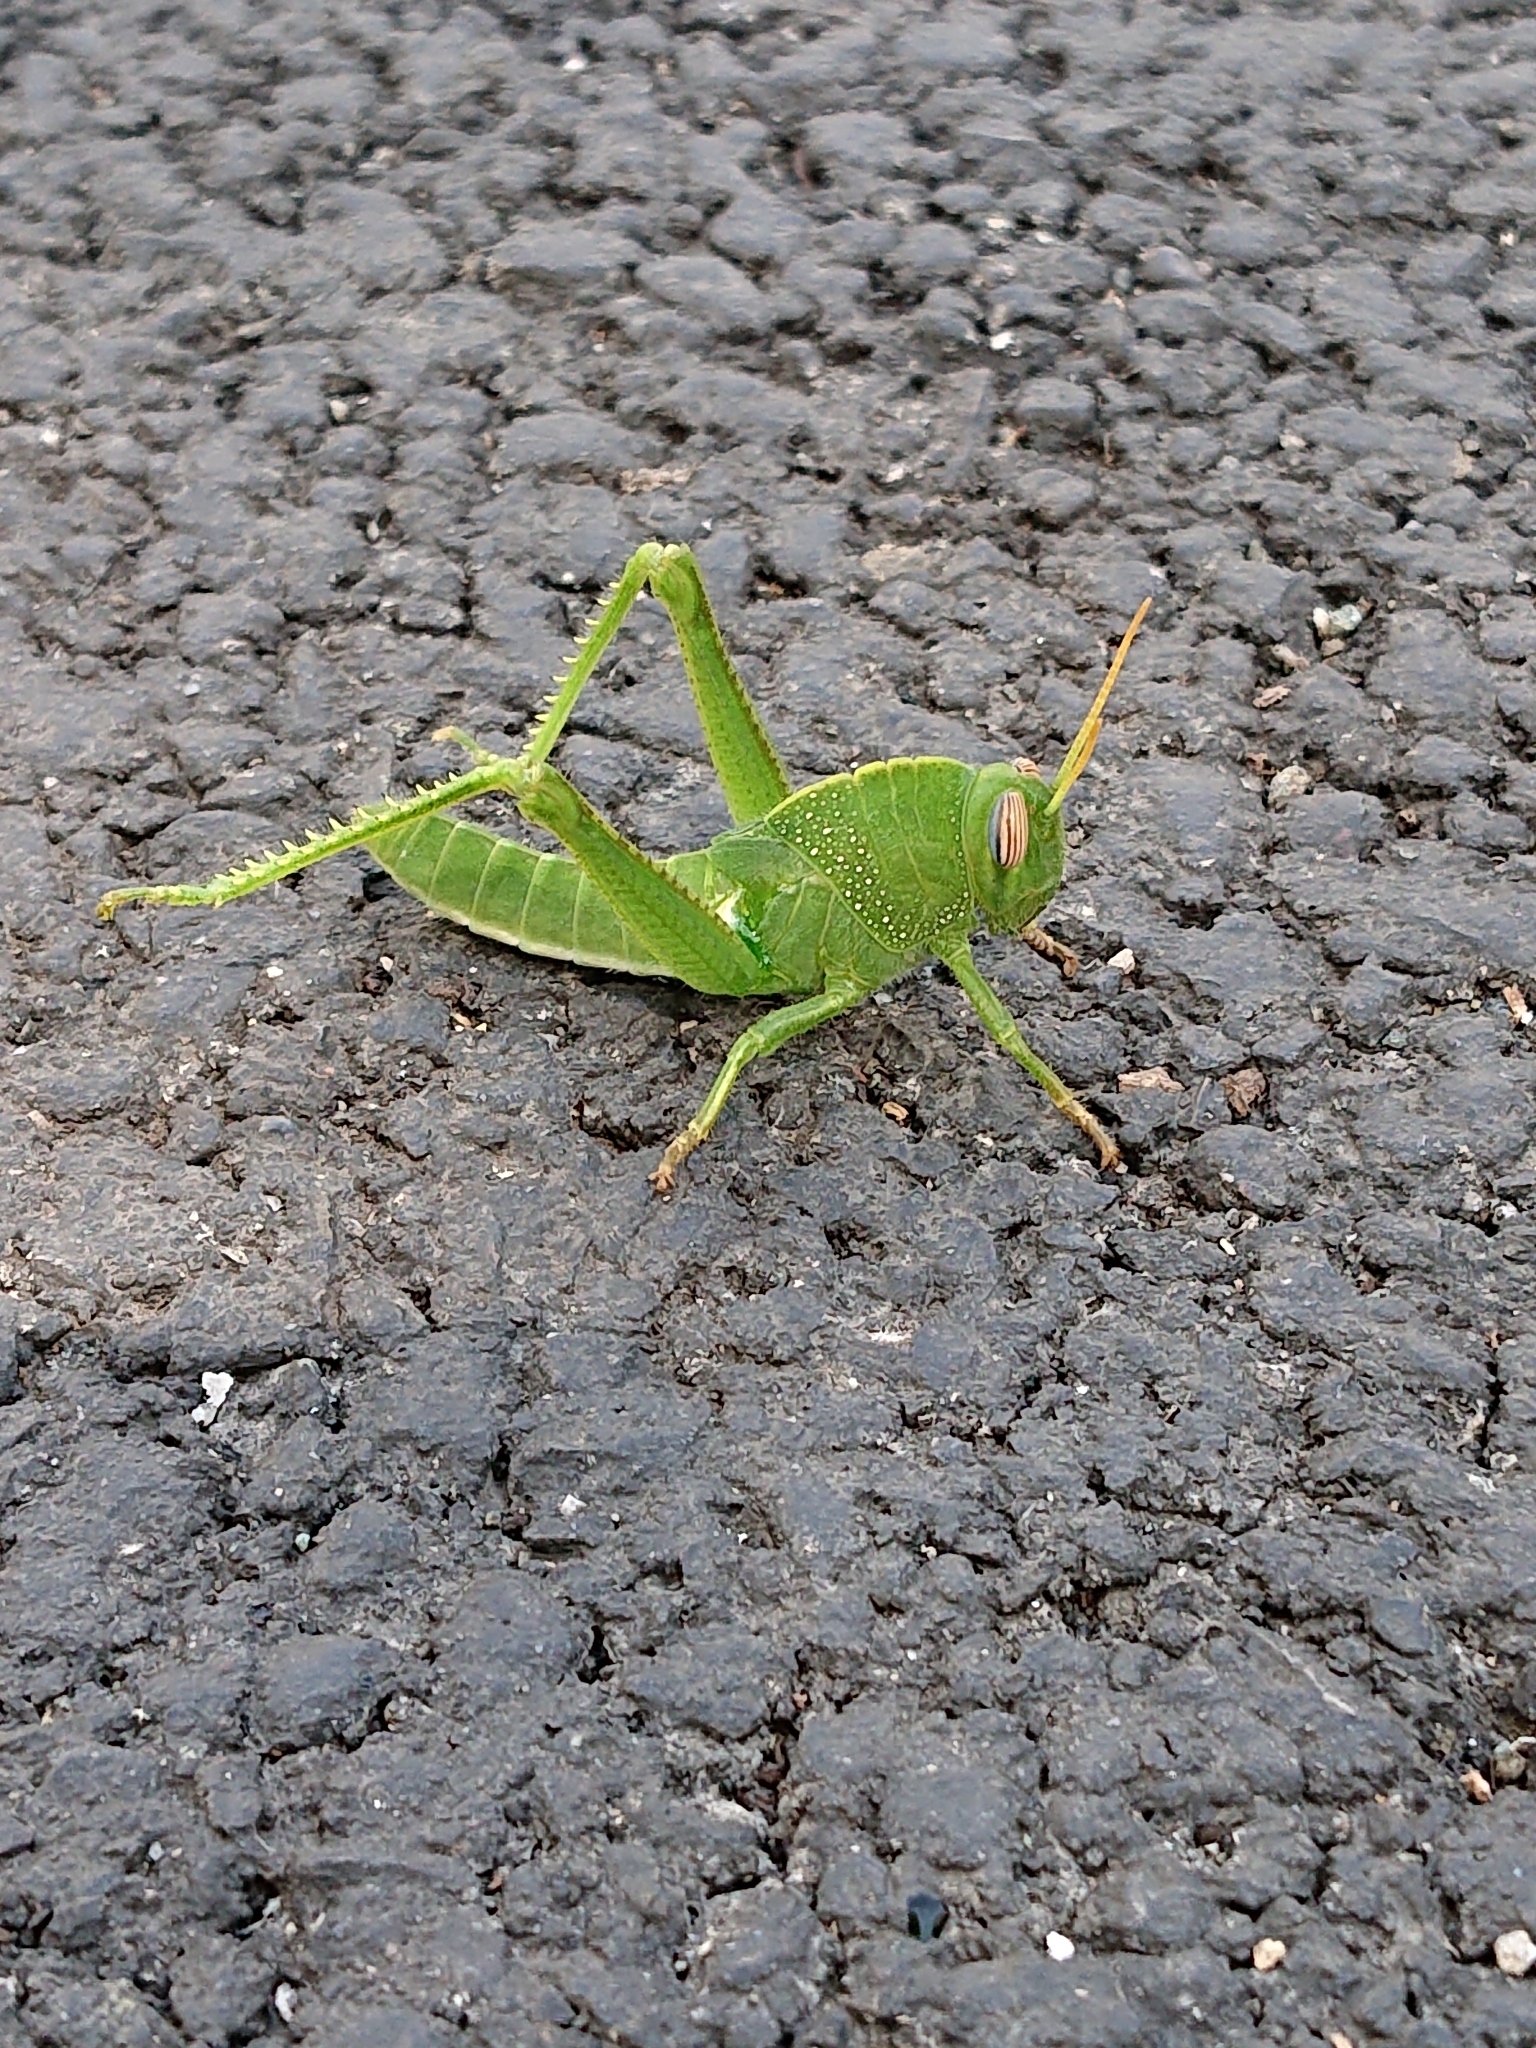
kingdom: Animalia
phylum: Arthropoda
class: Insecta
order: Orthoptera
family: Acrididae
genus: Anacridium
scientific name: Anacridium aegyptium
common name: Egyptian grasshopper
